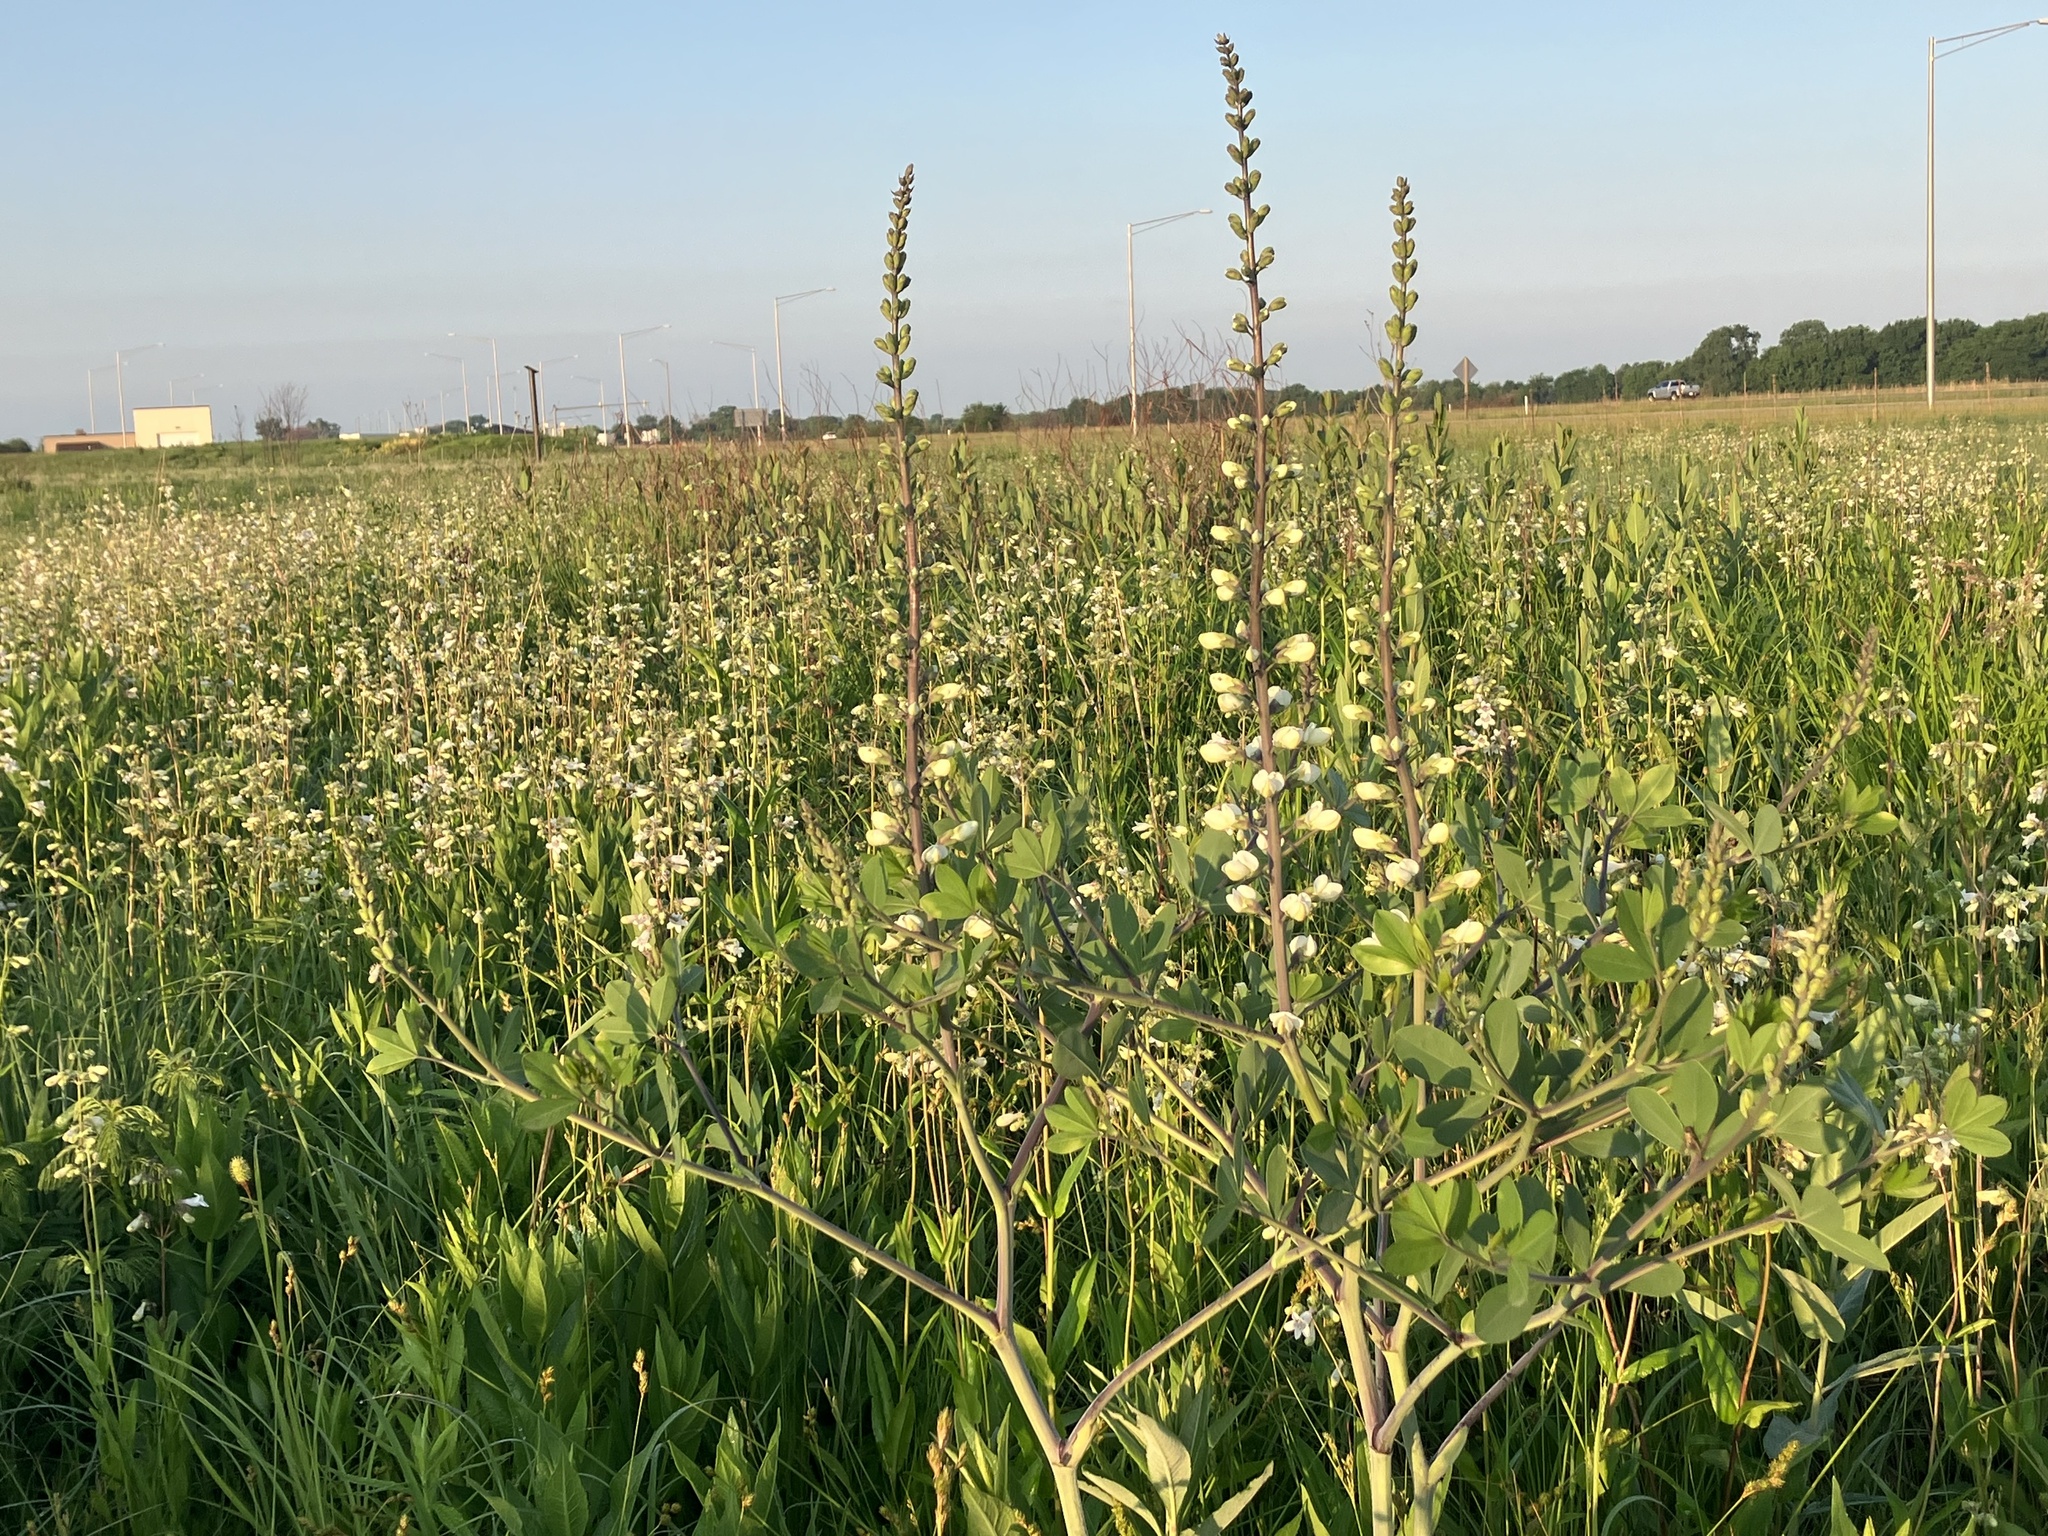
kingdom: Plantae
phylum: Tracheophyta
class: Magnoliopsida
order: Fabales
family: Fabaceae
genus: Baptisia
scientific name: Baptisia alba
